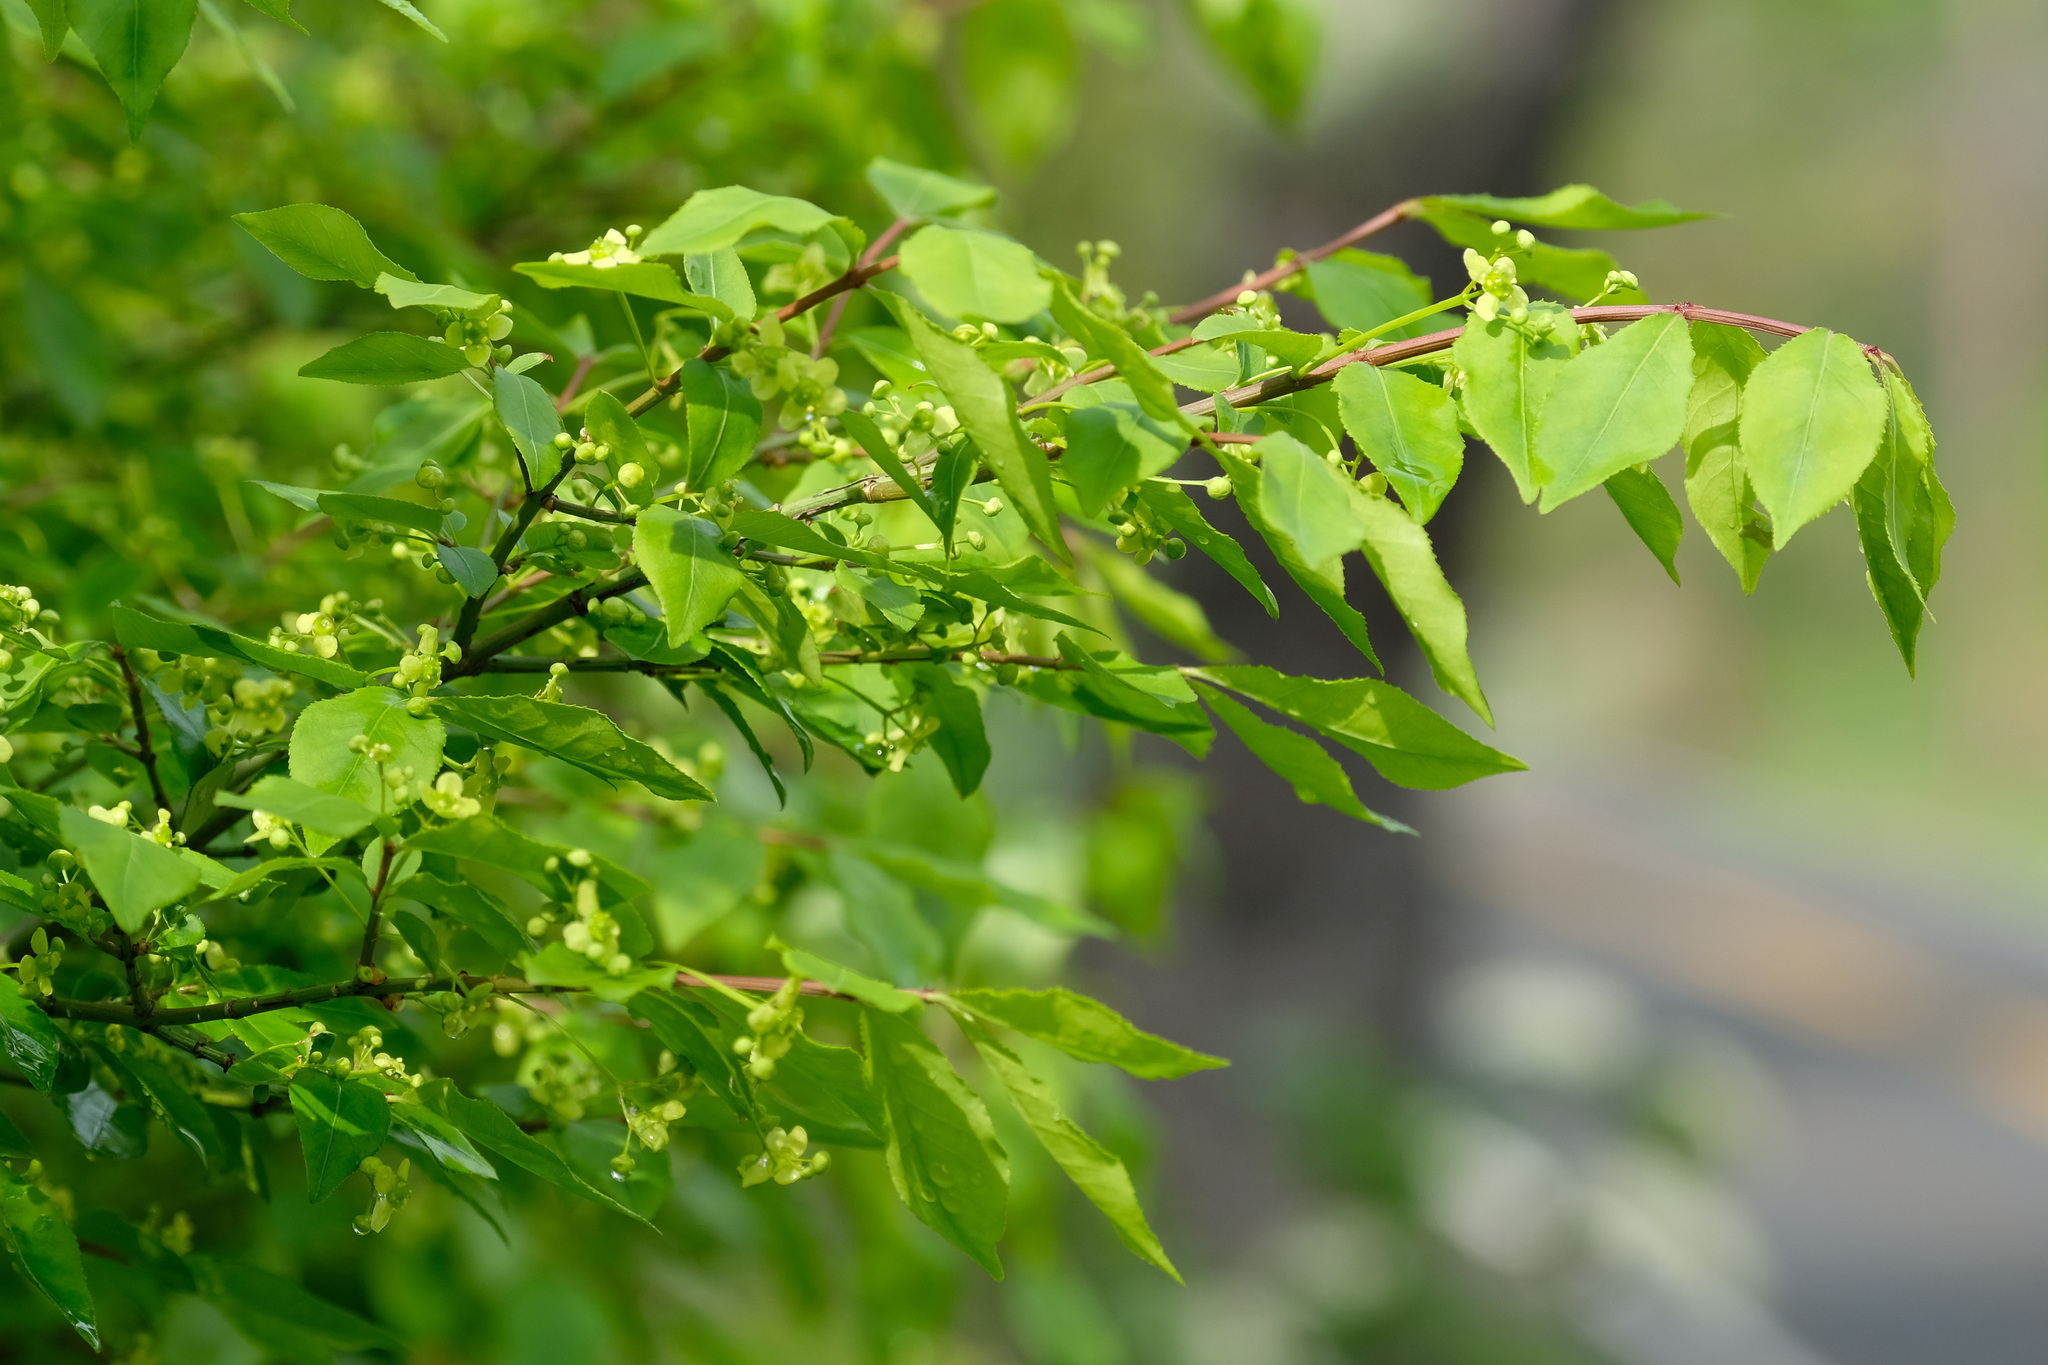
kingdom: Plantae
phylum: Tracheophyta
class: Magnoliopsida
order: Celastrales
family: Celastraceae
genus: Euonymus
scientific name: Euonymus alatus
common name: Winged euonymus
